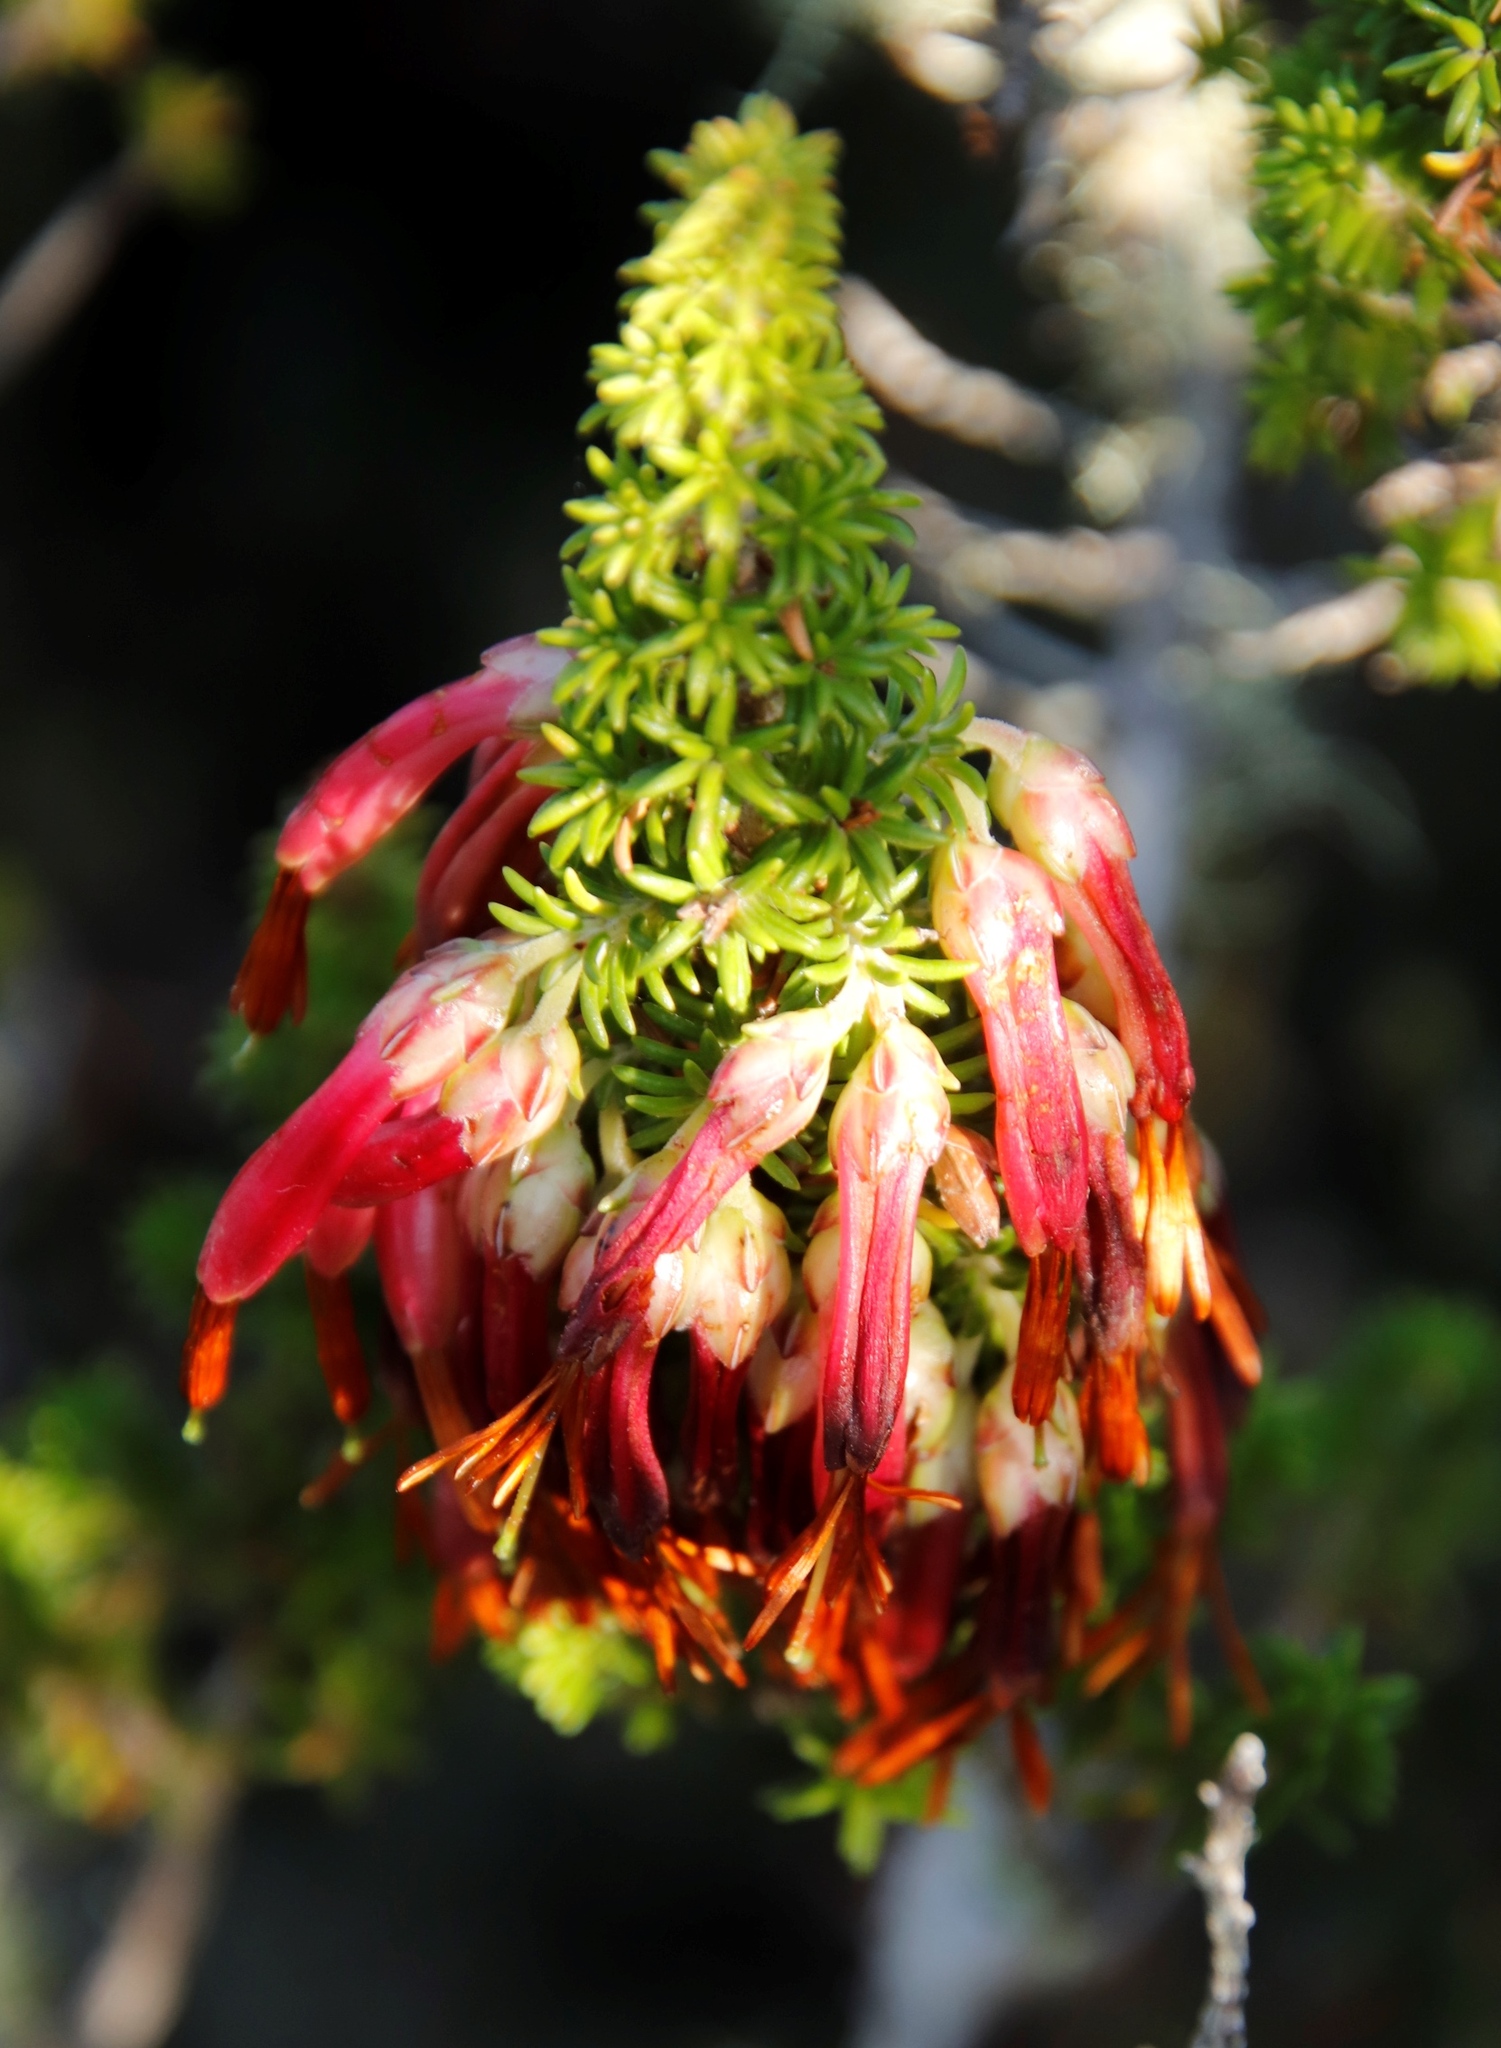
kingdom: Plantae
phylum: Tracheophyta
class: Magnoliopsida
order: Ericales
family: Ericaceae
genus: Erica
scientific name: Erica coccinea
